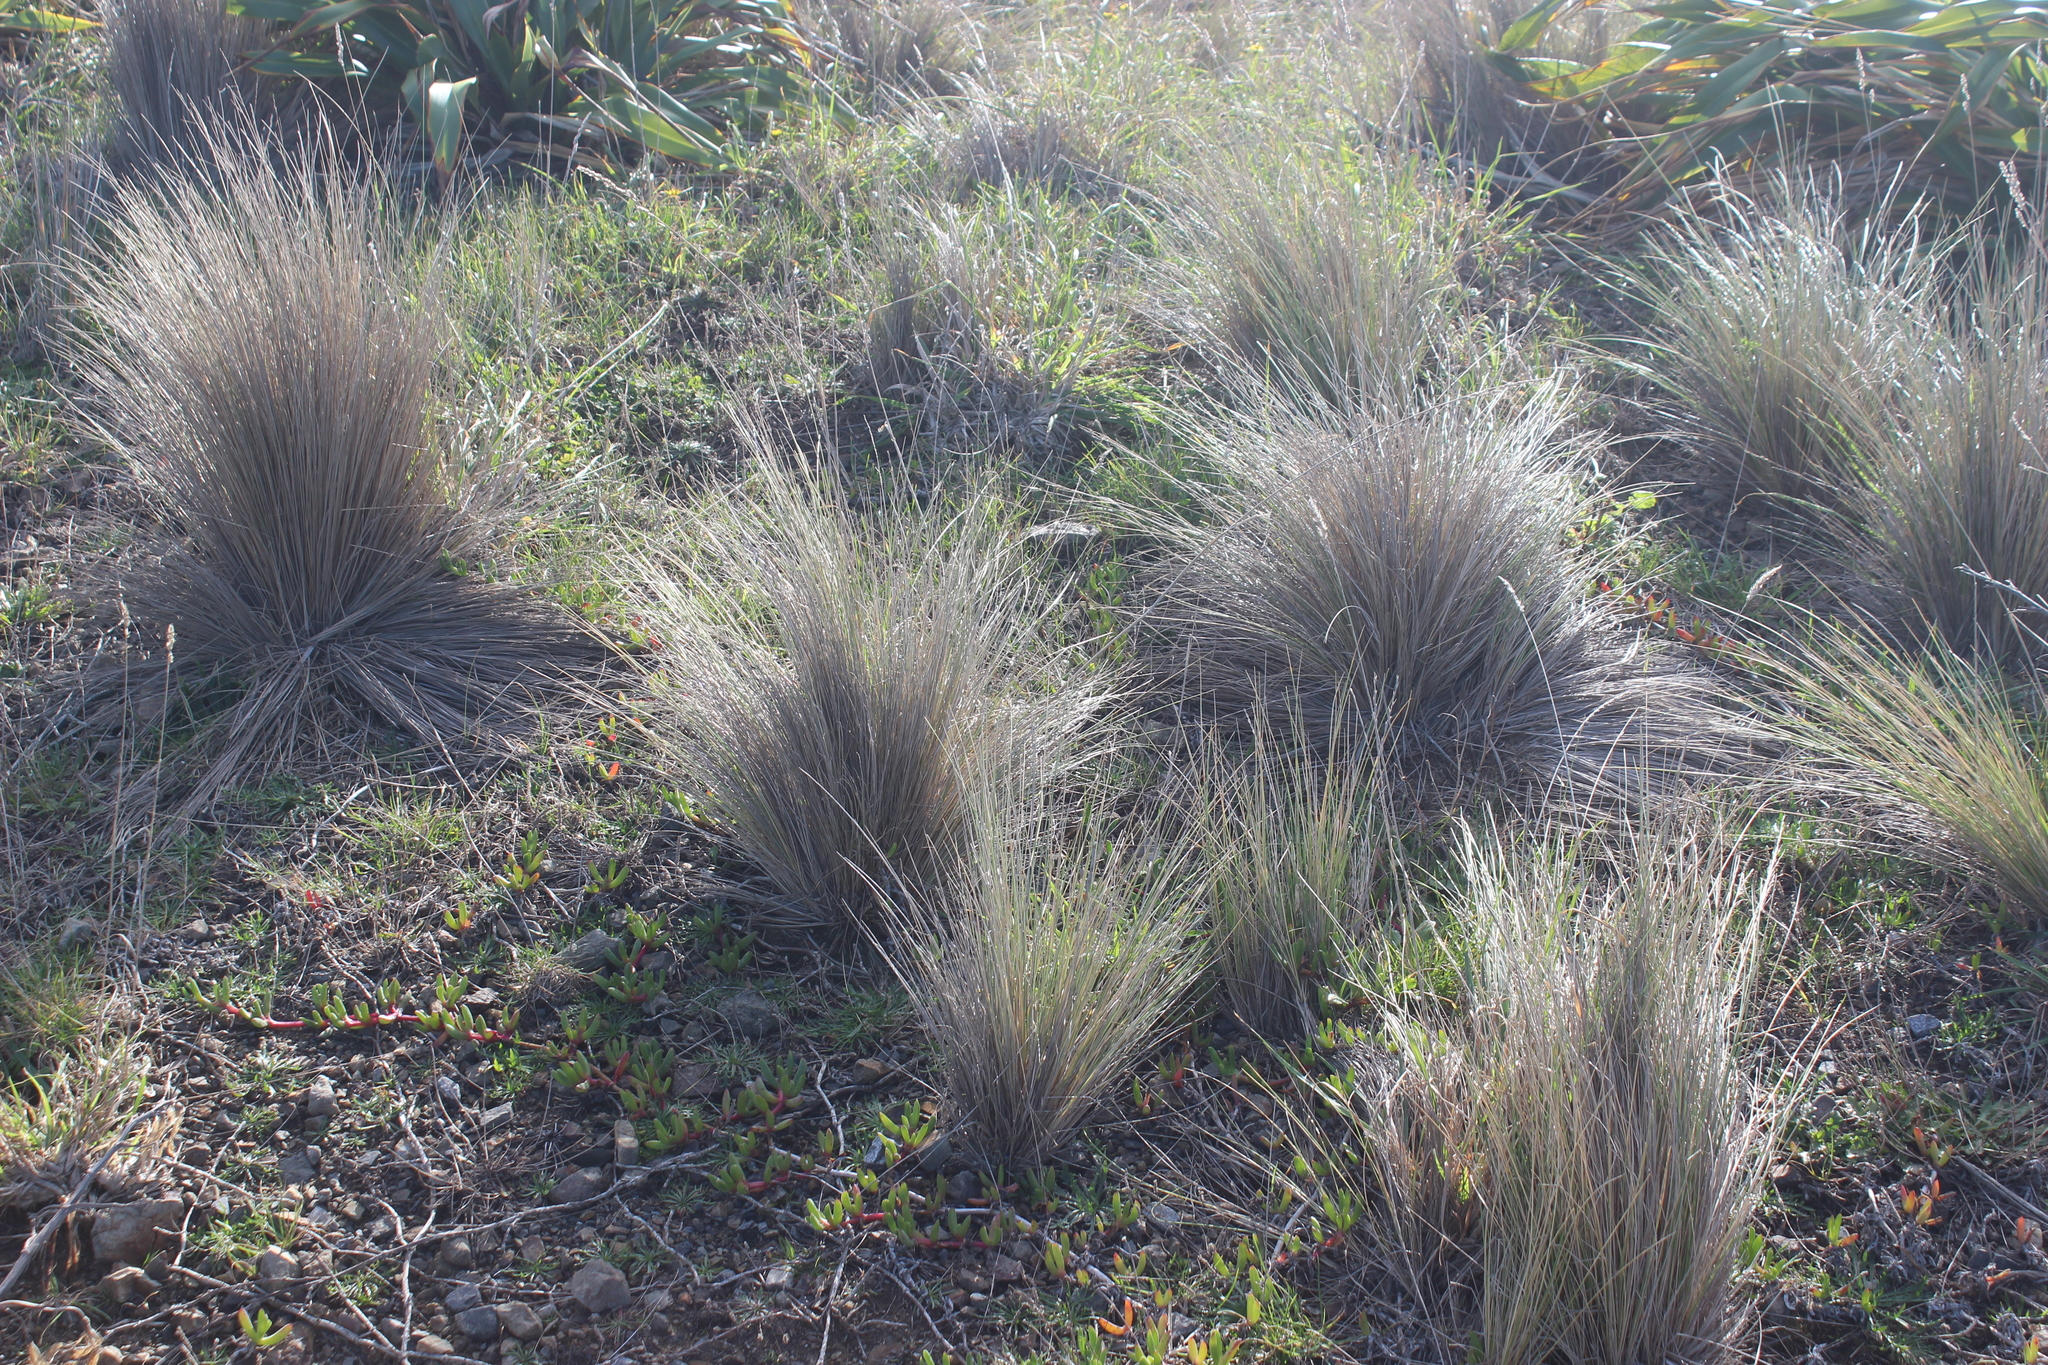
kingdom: Plantae
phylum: Tracheophyta
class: Liliopsida
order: Poales
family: Poaceae
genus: Poa
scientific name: Poa cita
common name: Silver tussock
